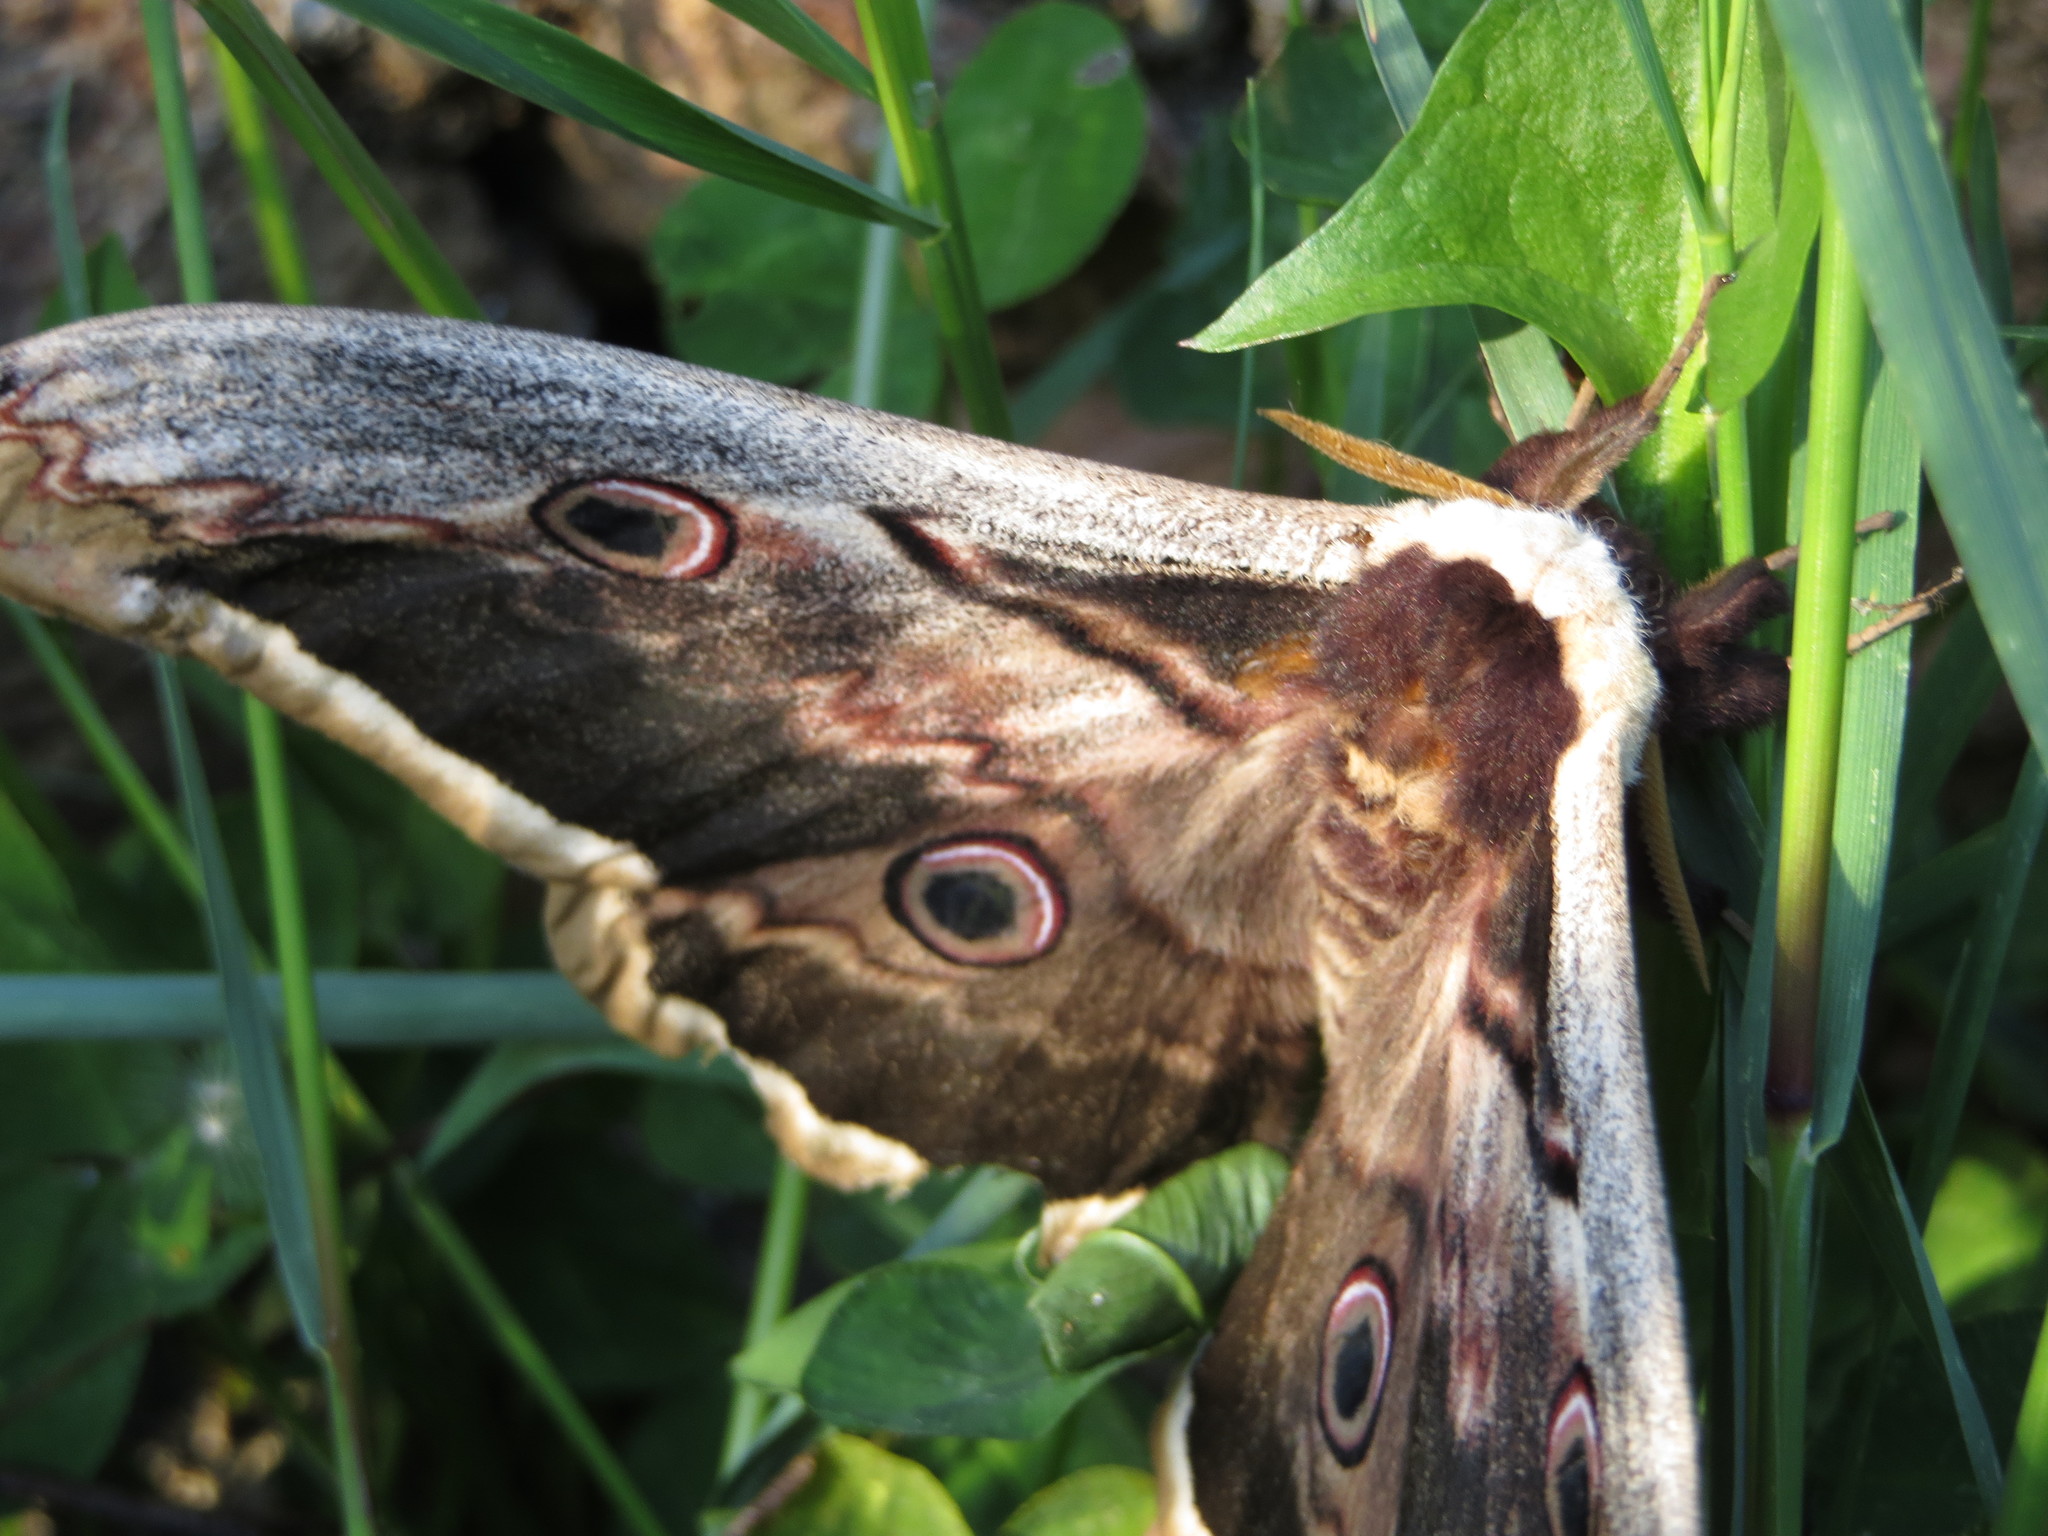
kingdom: Animalia
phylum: Arthropoda
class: Insecta
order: Lepidoptera
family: Saturniidae
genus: Saturnia
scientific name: Saturnia pyri
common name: Great peacock moth
